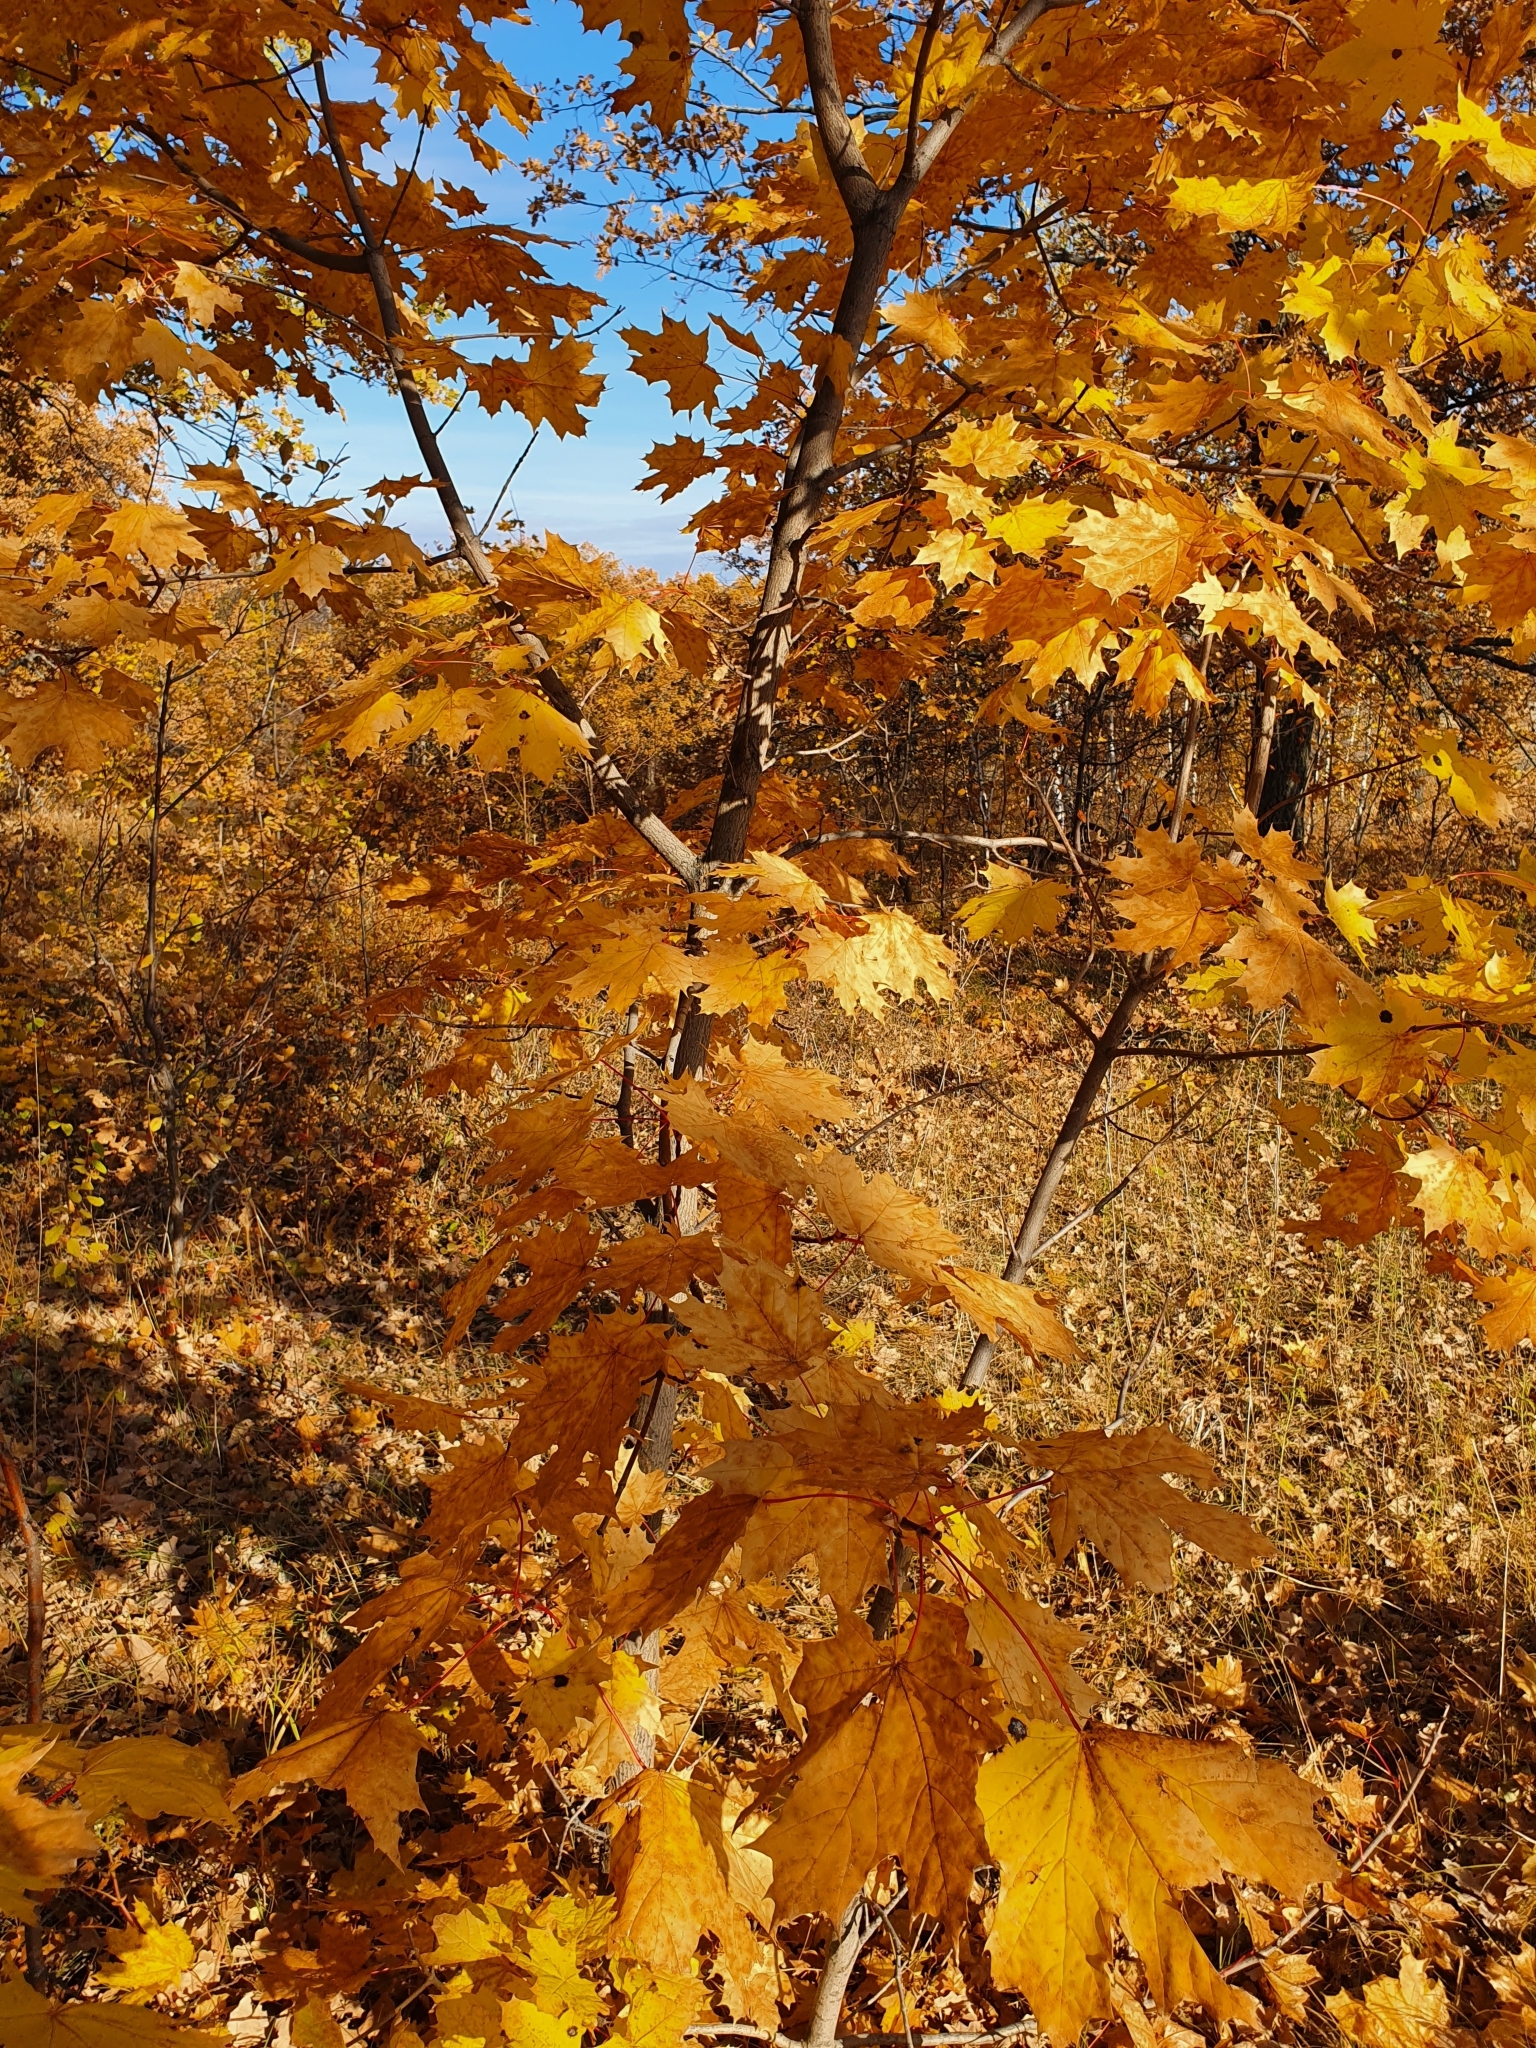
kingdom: Plantae
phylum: Tracheophyta
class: Magnoliopsida
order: Sapindales
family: Sapindaceae
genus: Acer
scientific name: Acer platanoides
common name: Norway maple
